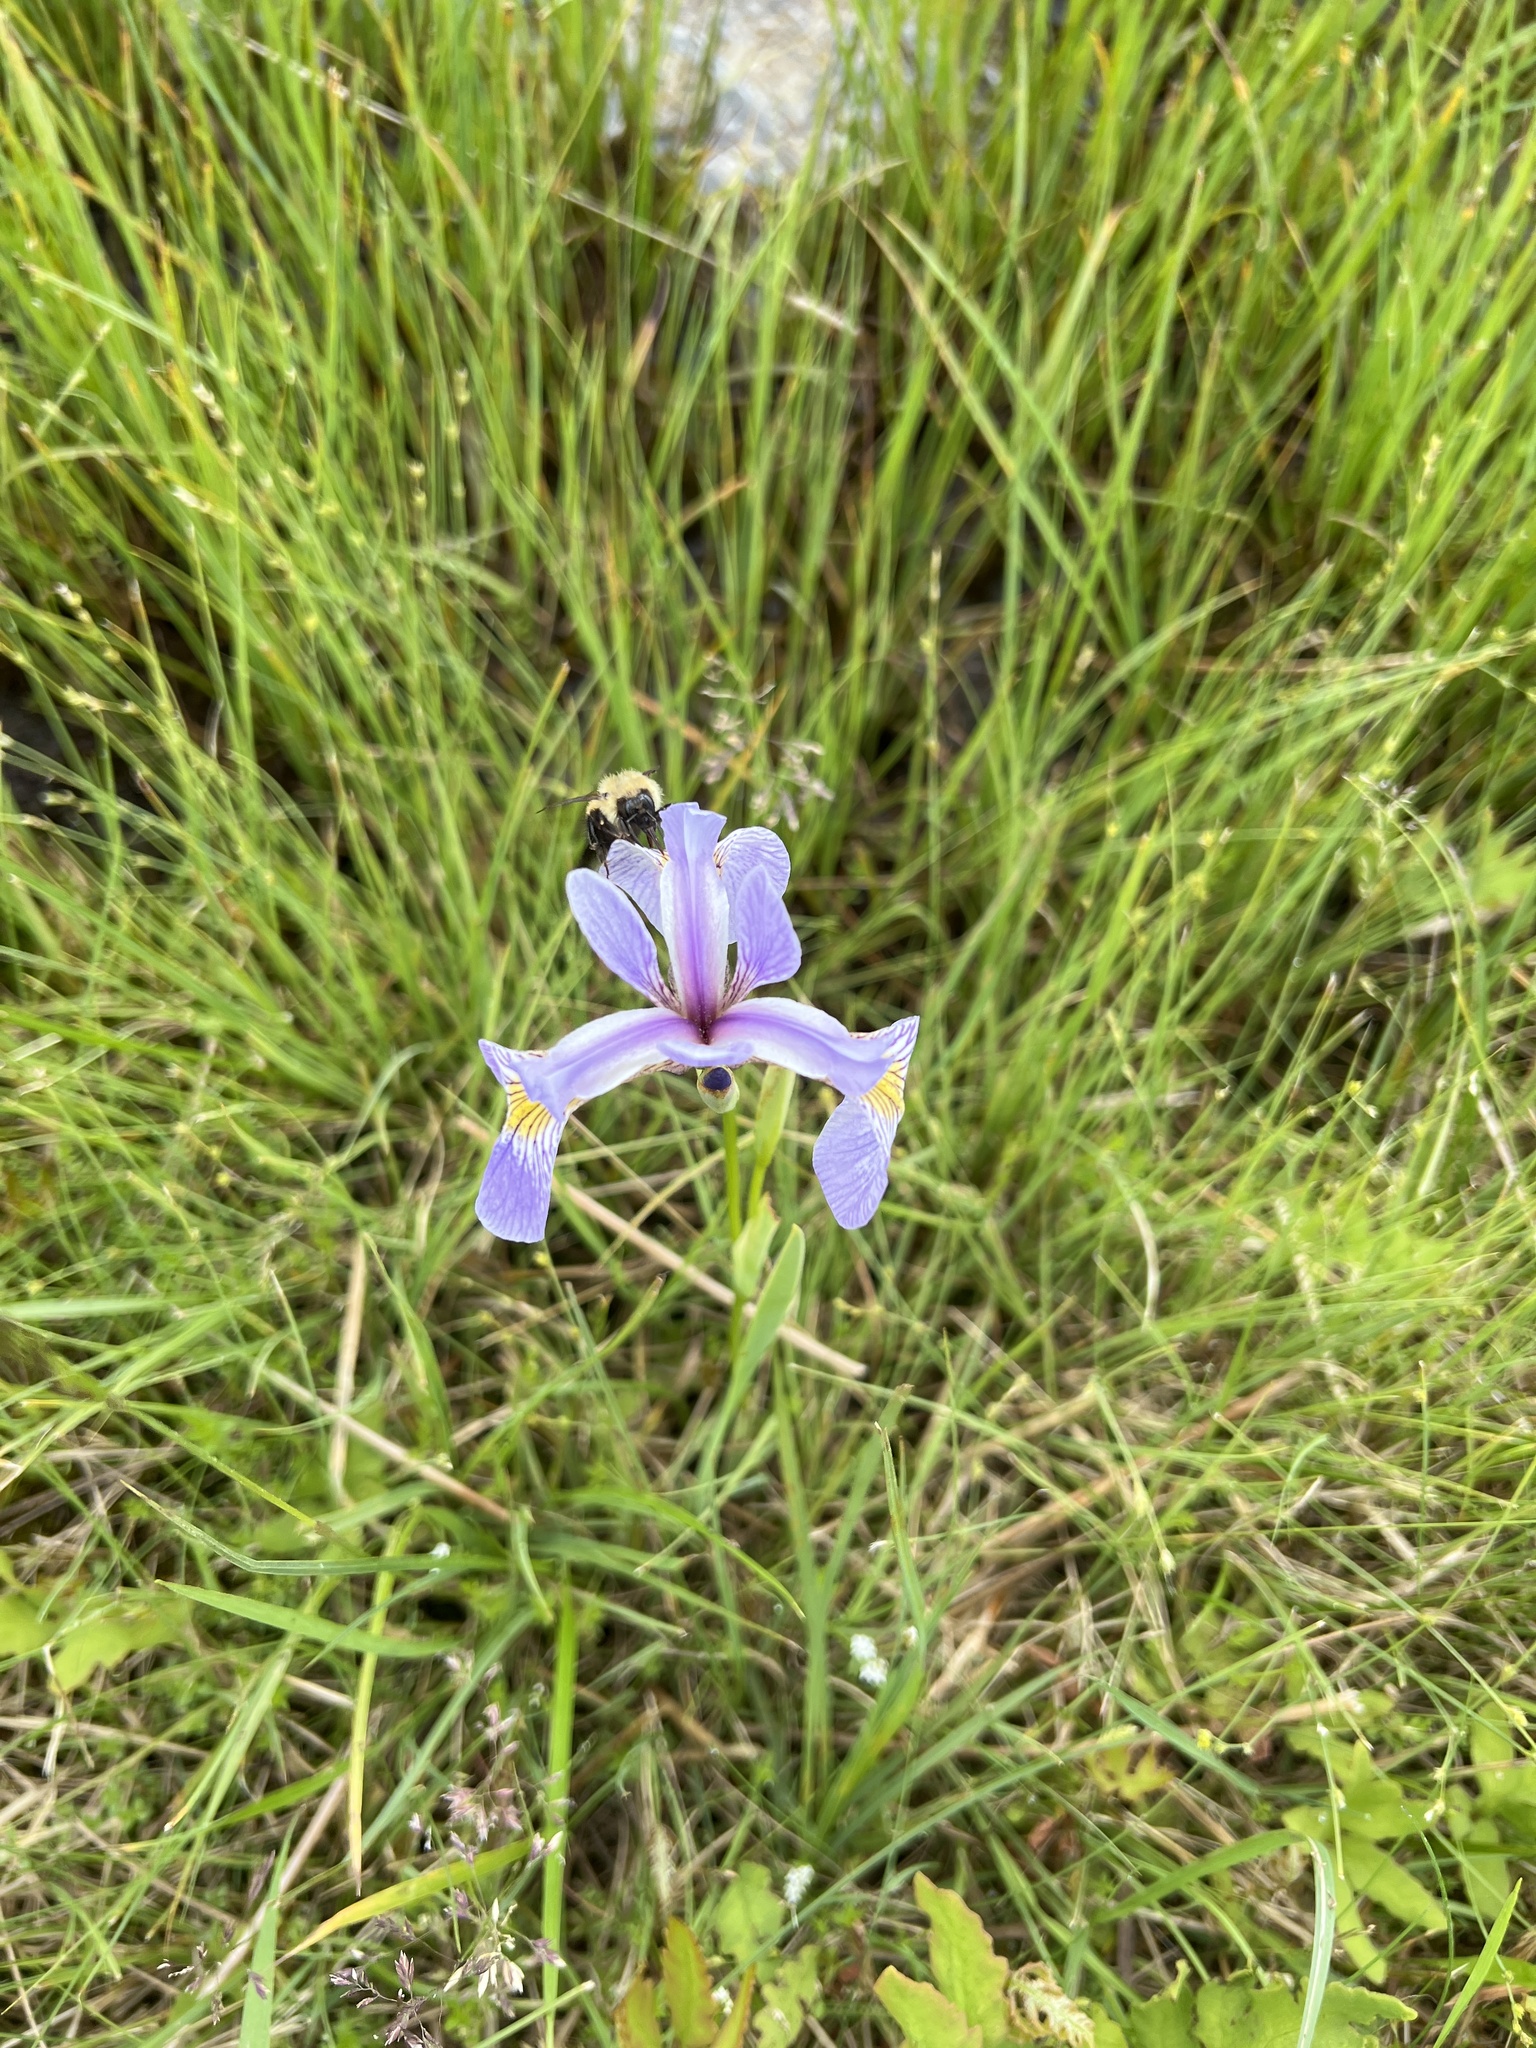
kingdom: Plantae
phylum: Tracheophyta
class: Liliopsida
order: Asparagales
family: Iridaceae
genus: Iris
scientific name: Iris versicolor
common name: Purple iris
